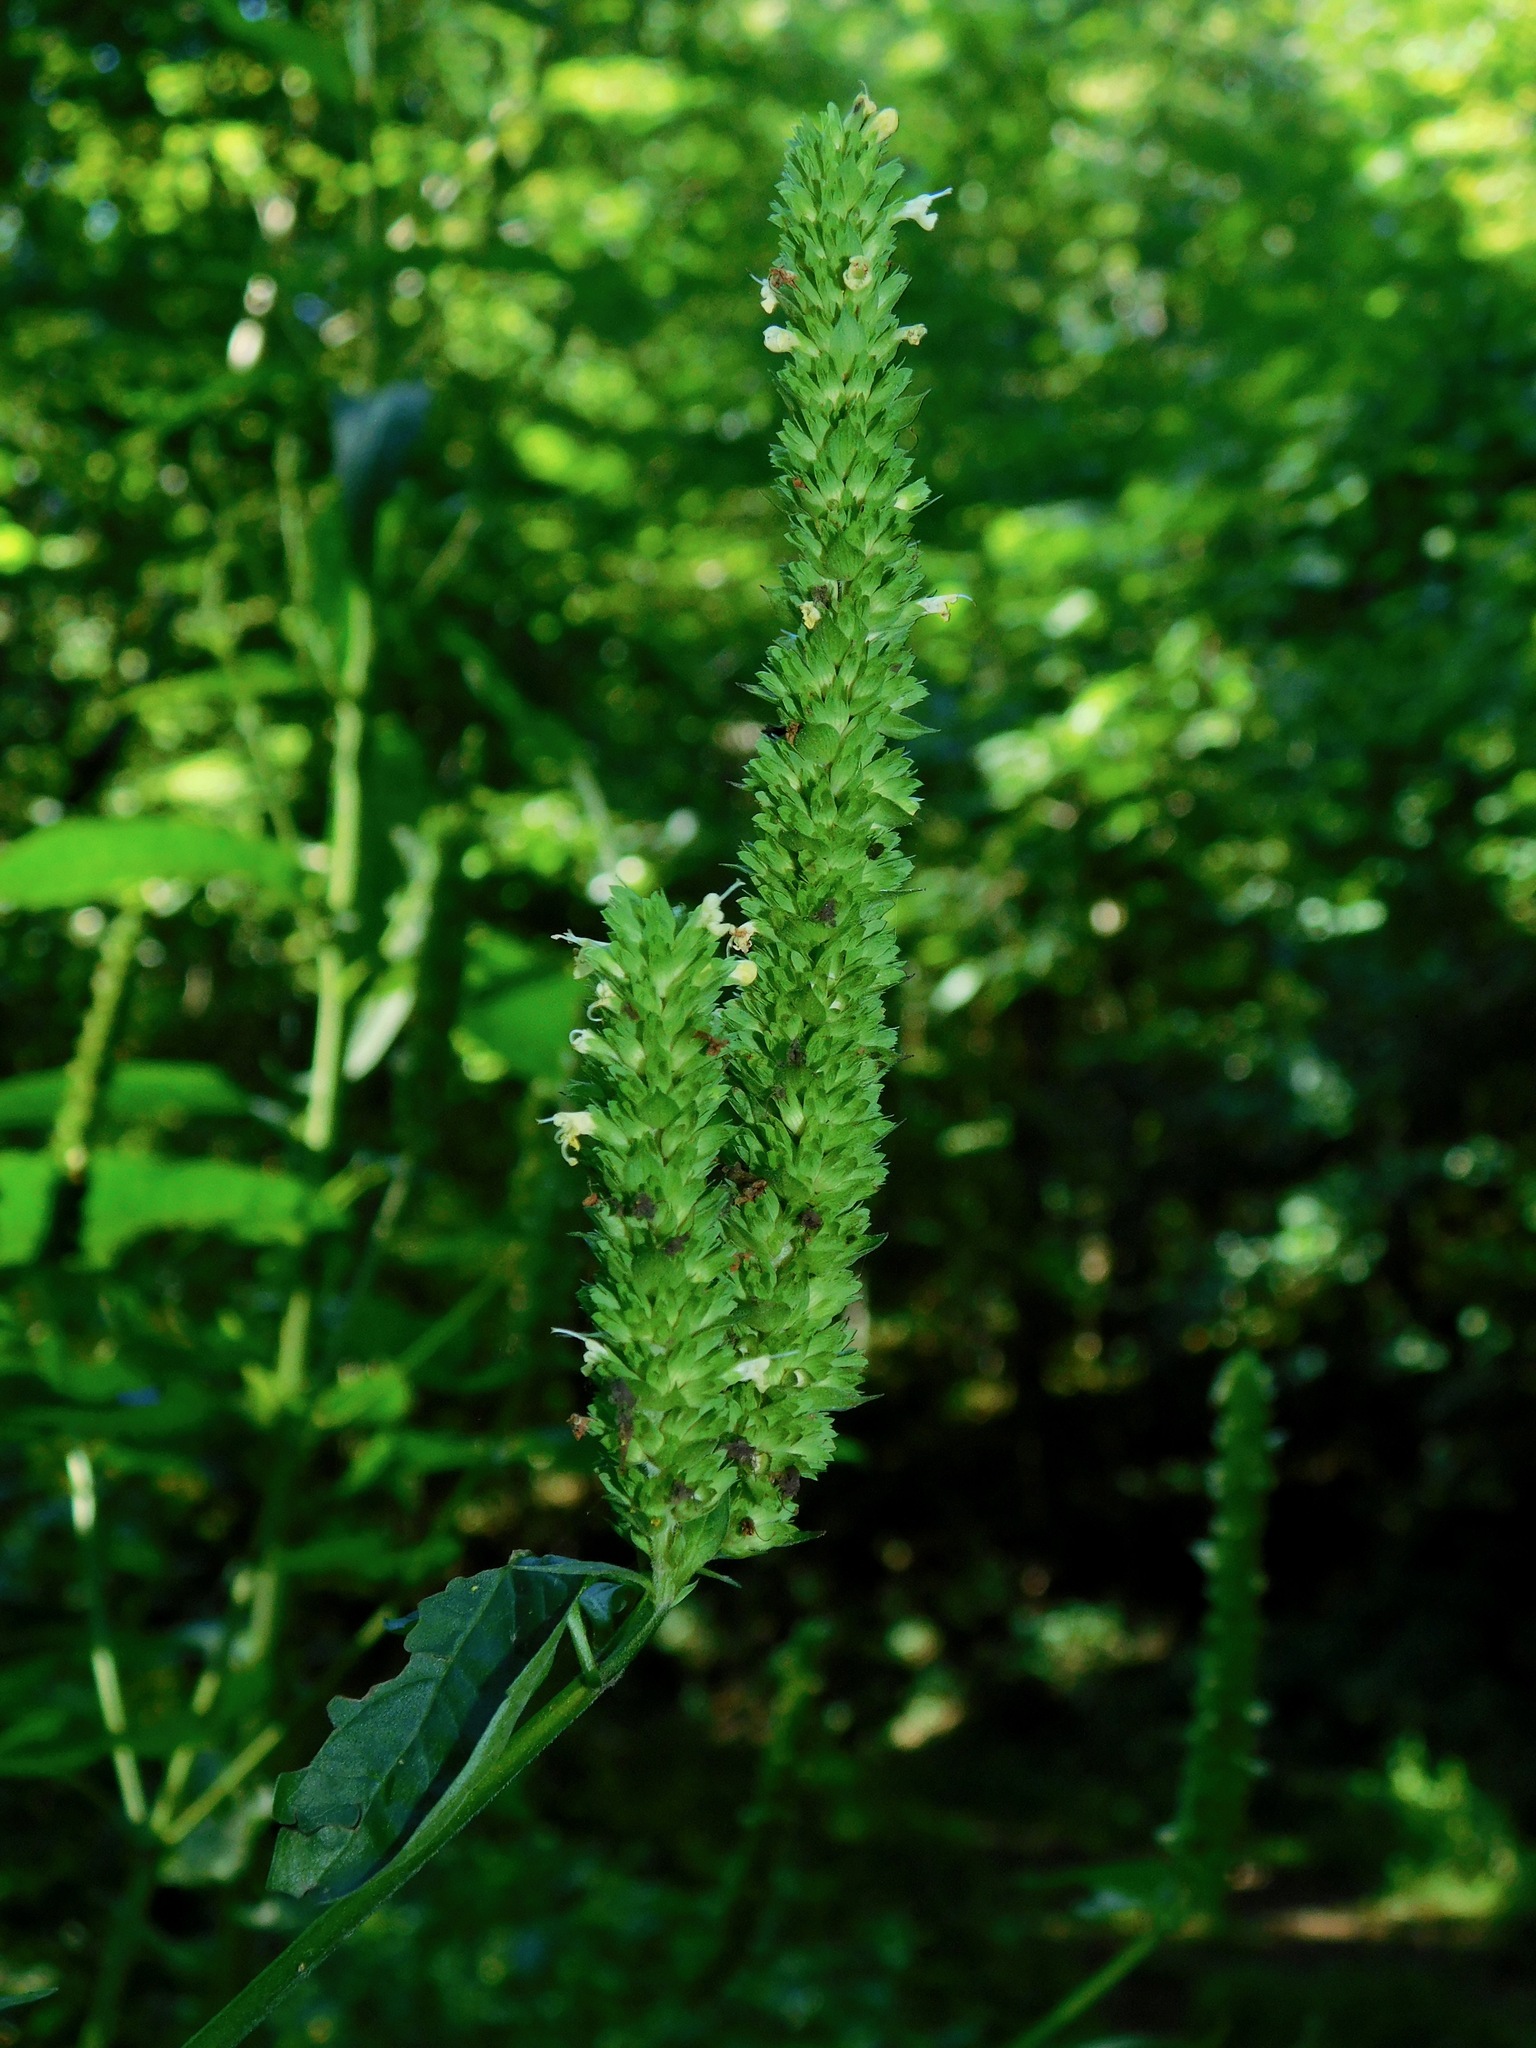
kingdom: Plantae
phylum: Tracheophyta
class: Magnoliopsida
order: Lamiales
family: Lamiaceae
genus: Agastache
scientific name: Agastache nepetoides
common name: Catnip giant hyssop
